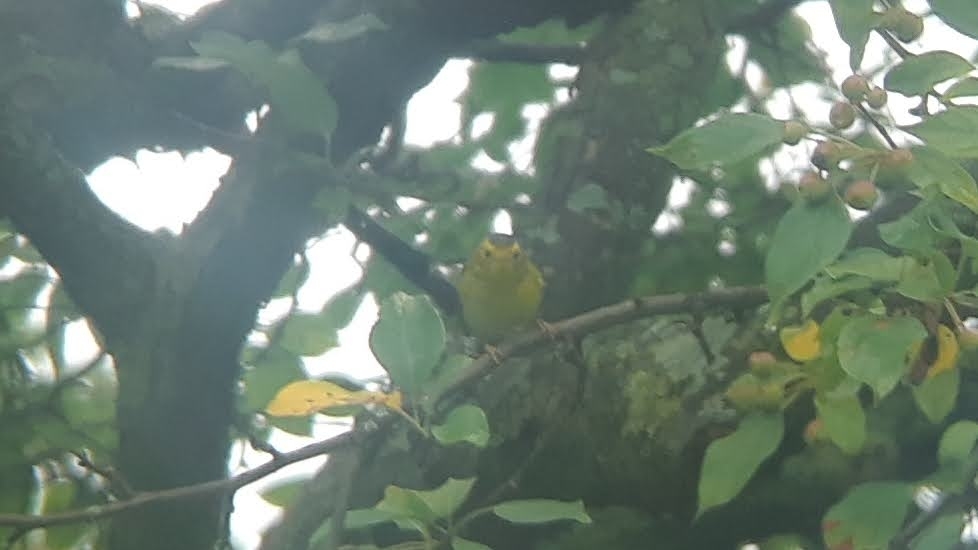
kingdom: Animalia
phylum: Chordata
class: Aves
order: Passeriformes
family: Parulidae
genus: Cardellina
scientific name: Cardellina pusilla
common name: Wilson's warbler
